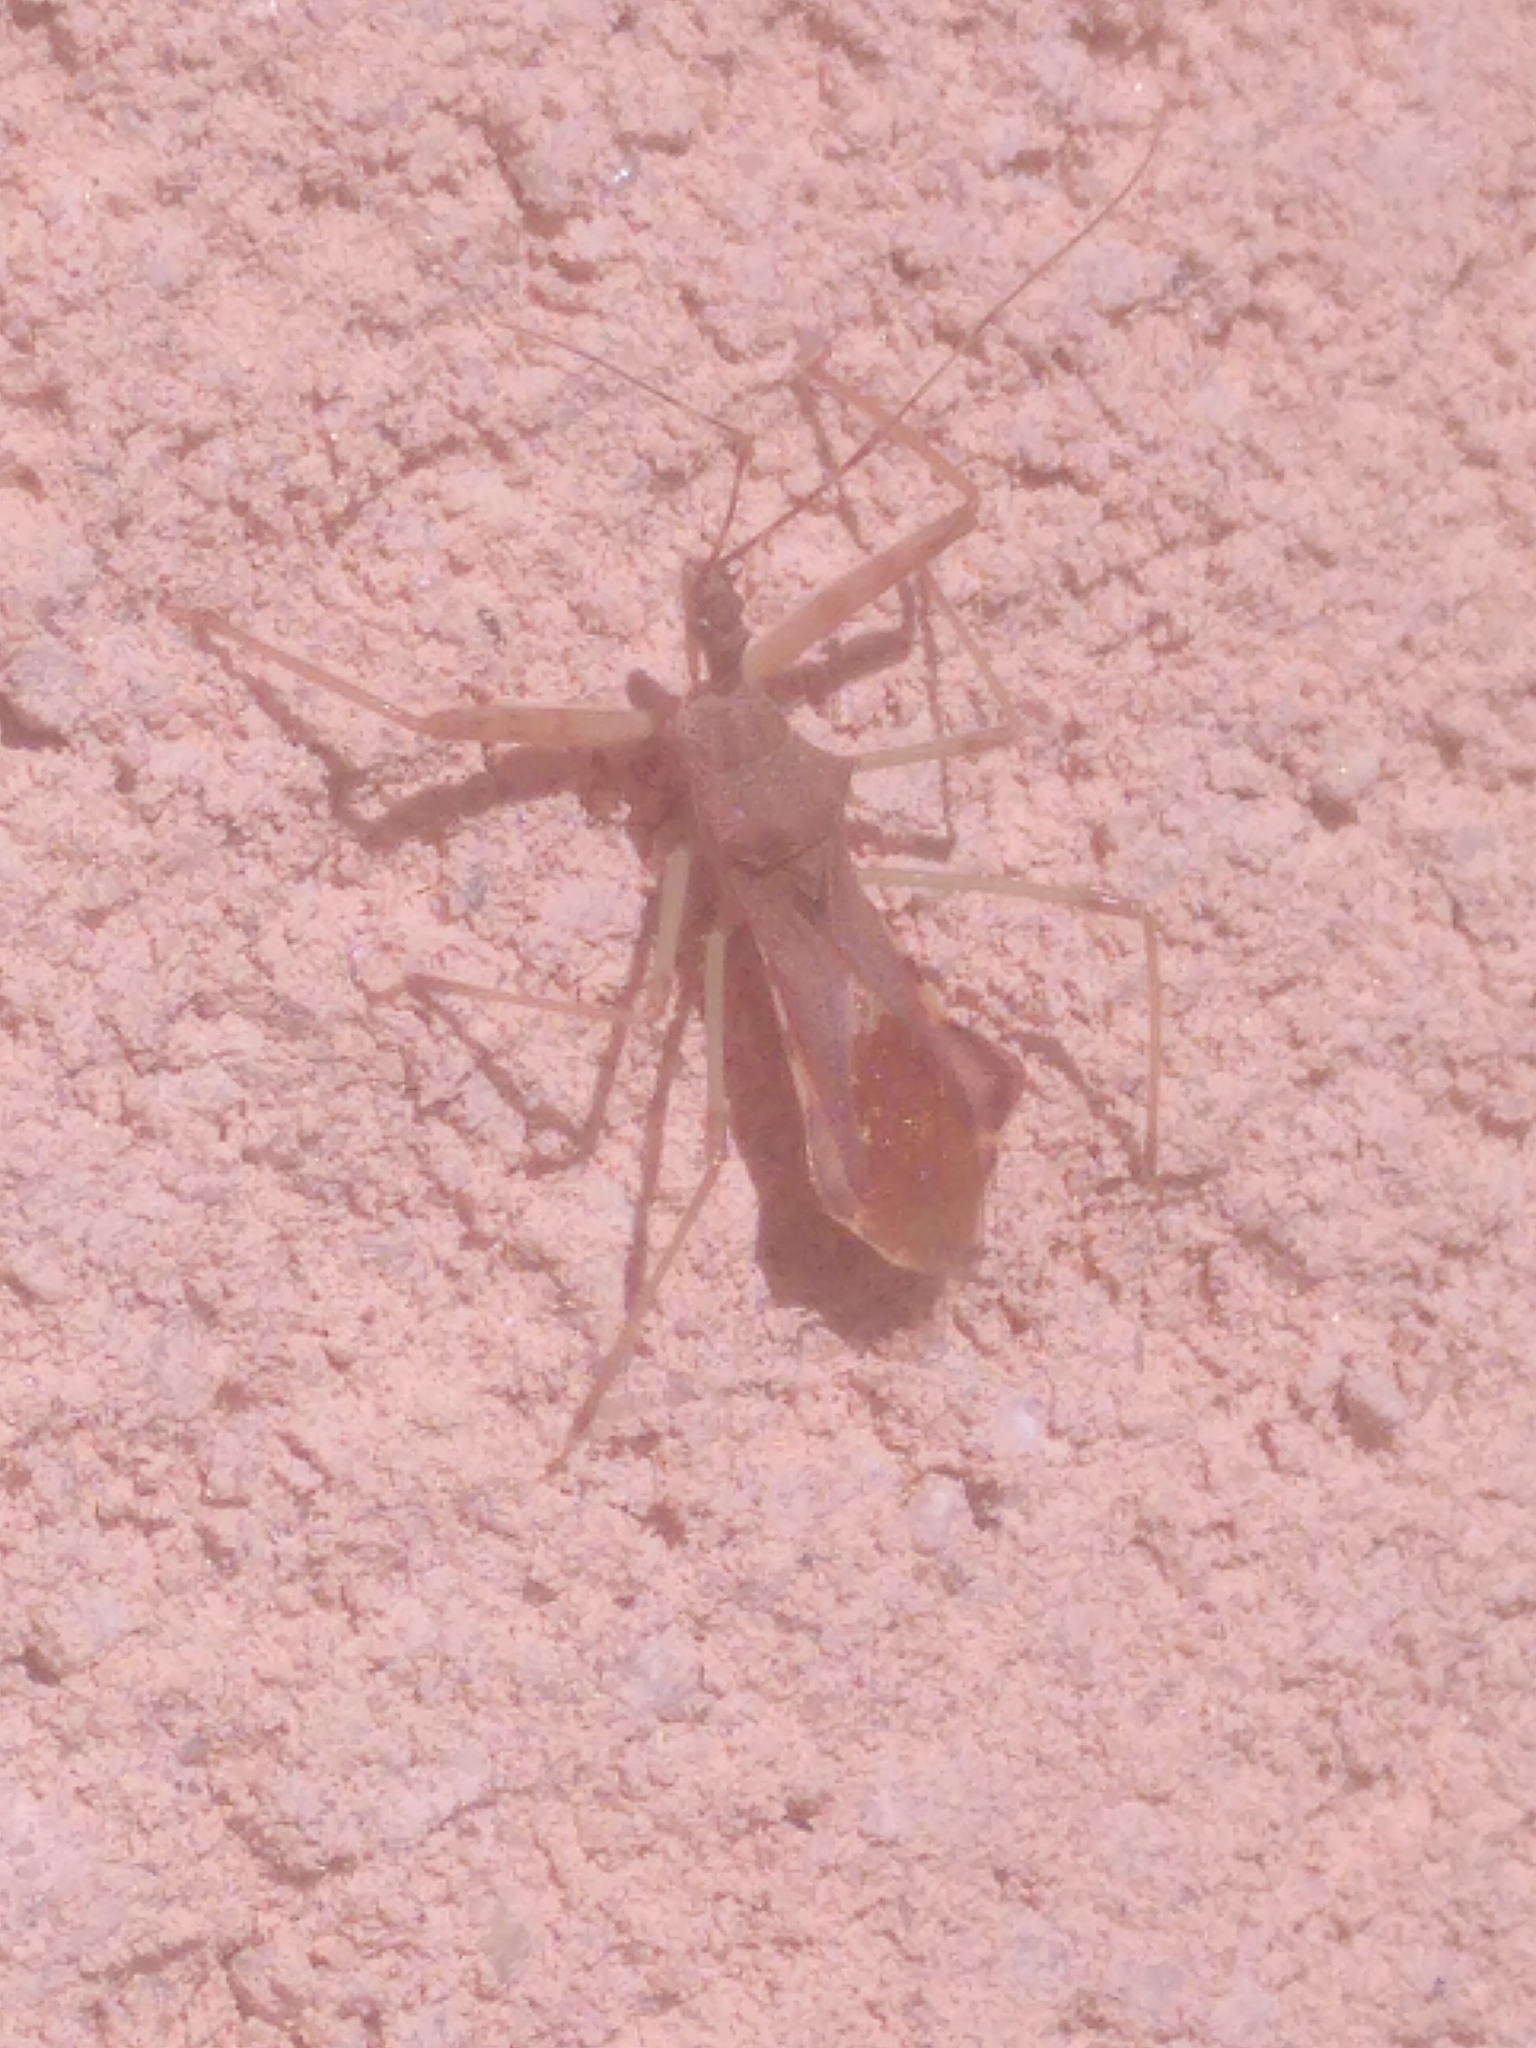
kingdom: Animalia
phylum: Arthropoda
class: Insecta
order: Hemiptera
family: Reduviidae
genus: Nagusta
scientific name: Nagusta goedelii
